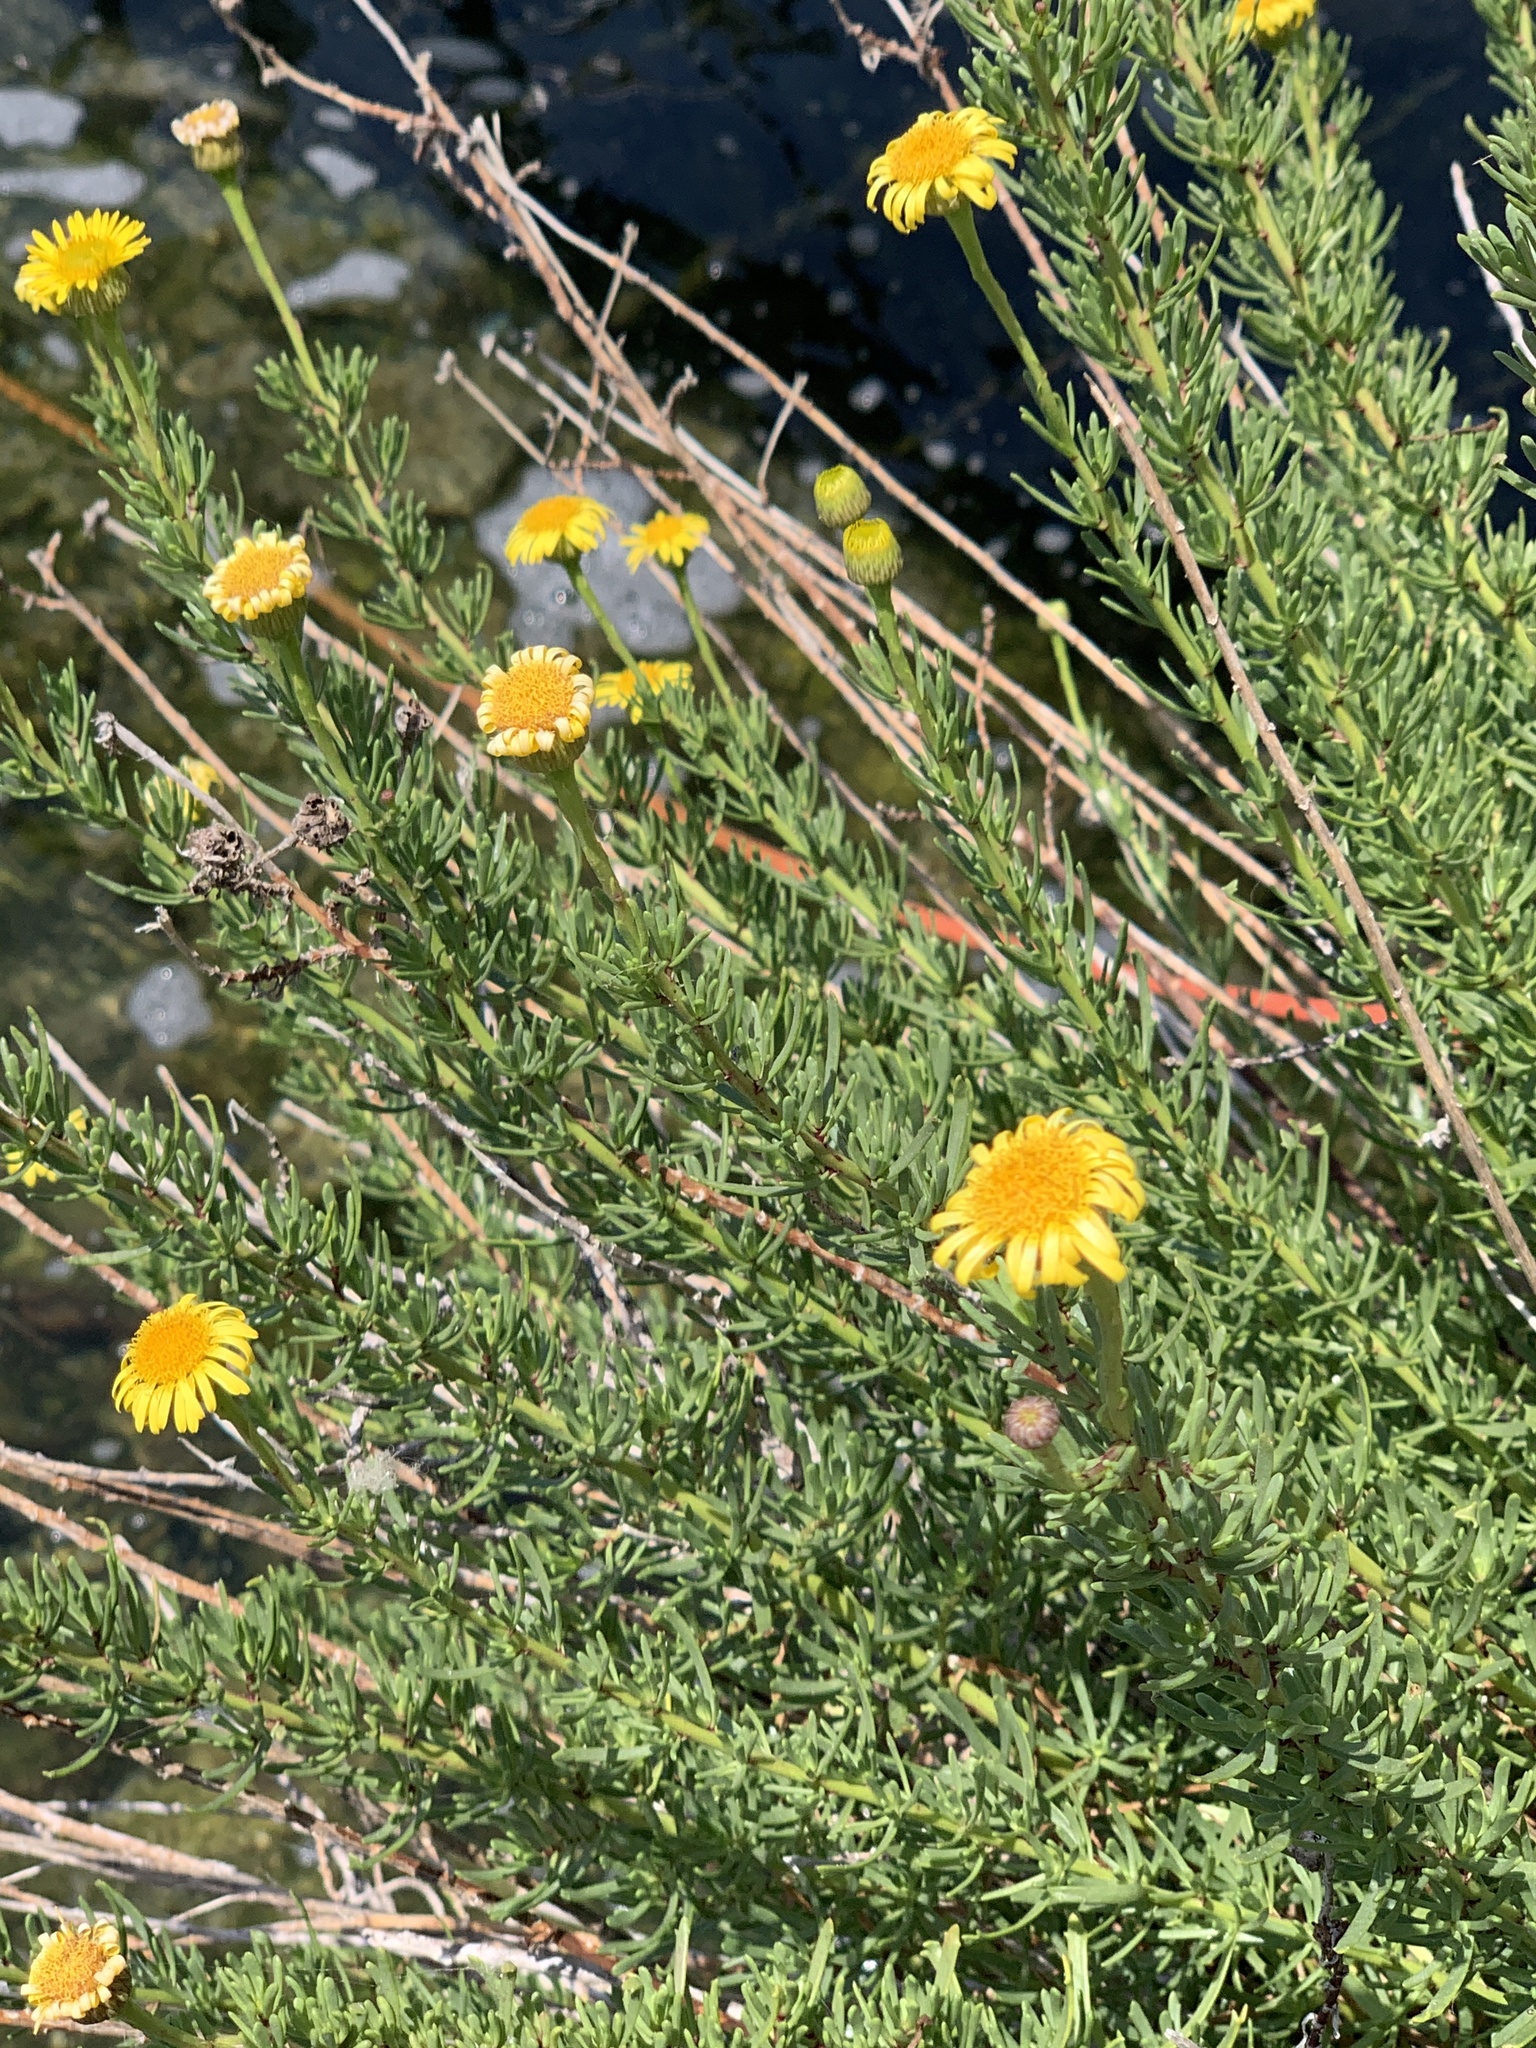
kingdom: Plantae
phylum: Tracheophyta
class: Magnoliopsida
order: Asterales
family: Asteraceae
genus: Limbarda
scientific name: Limbarda crithmoides
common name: Golden samphire
